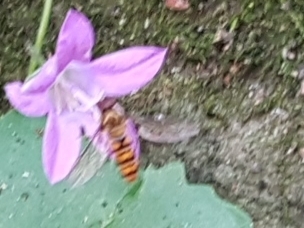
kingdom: Animalia
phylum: Arthropoda
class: Insecta
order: Diptera
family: Syrphidae
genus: Episyrphus
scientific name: Episyrphus balteatus
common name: Marmalade hoverfly
